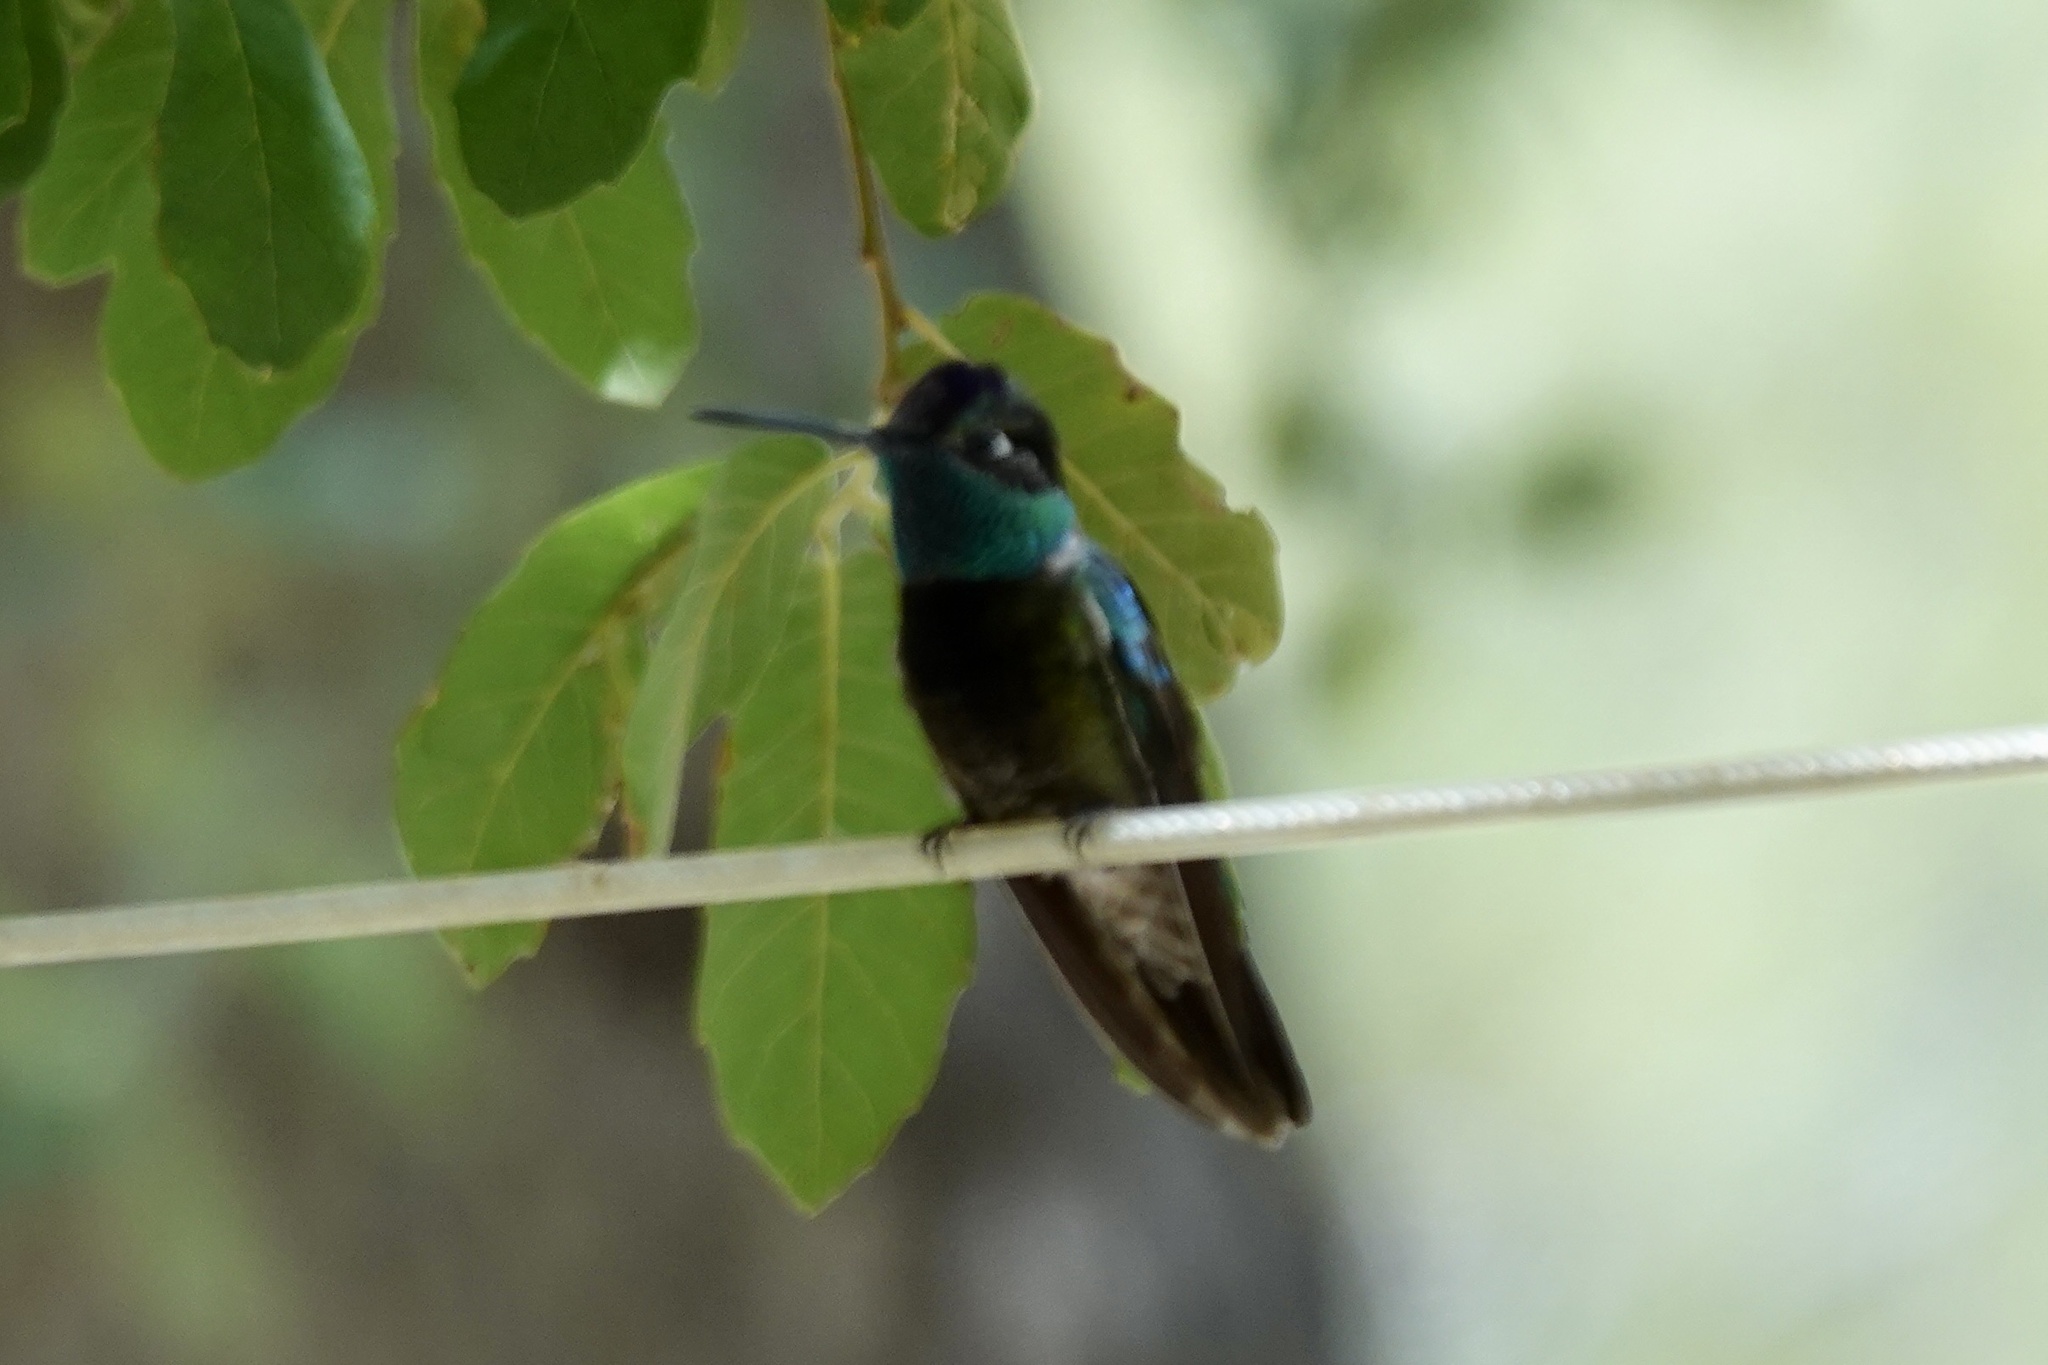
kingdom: Animalia
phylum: Chordata
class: Aves
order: Apodiformes
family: Trochilidae
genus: Eugenes
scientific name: Eugenes fulgens
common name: Magnificent hummingbird
